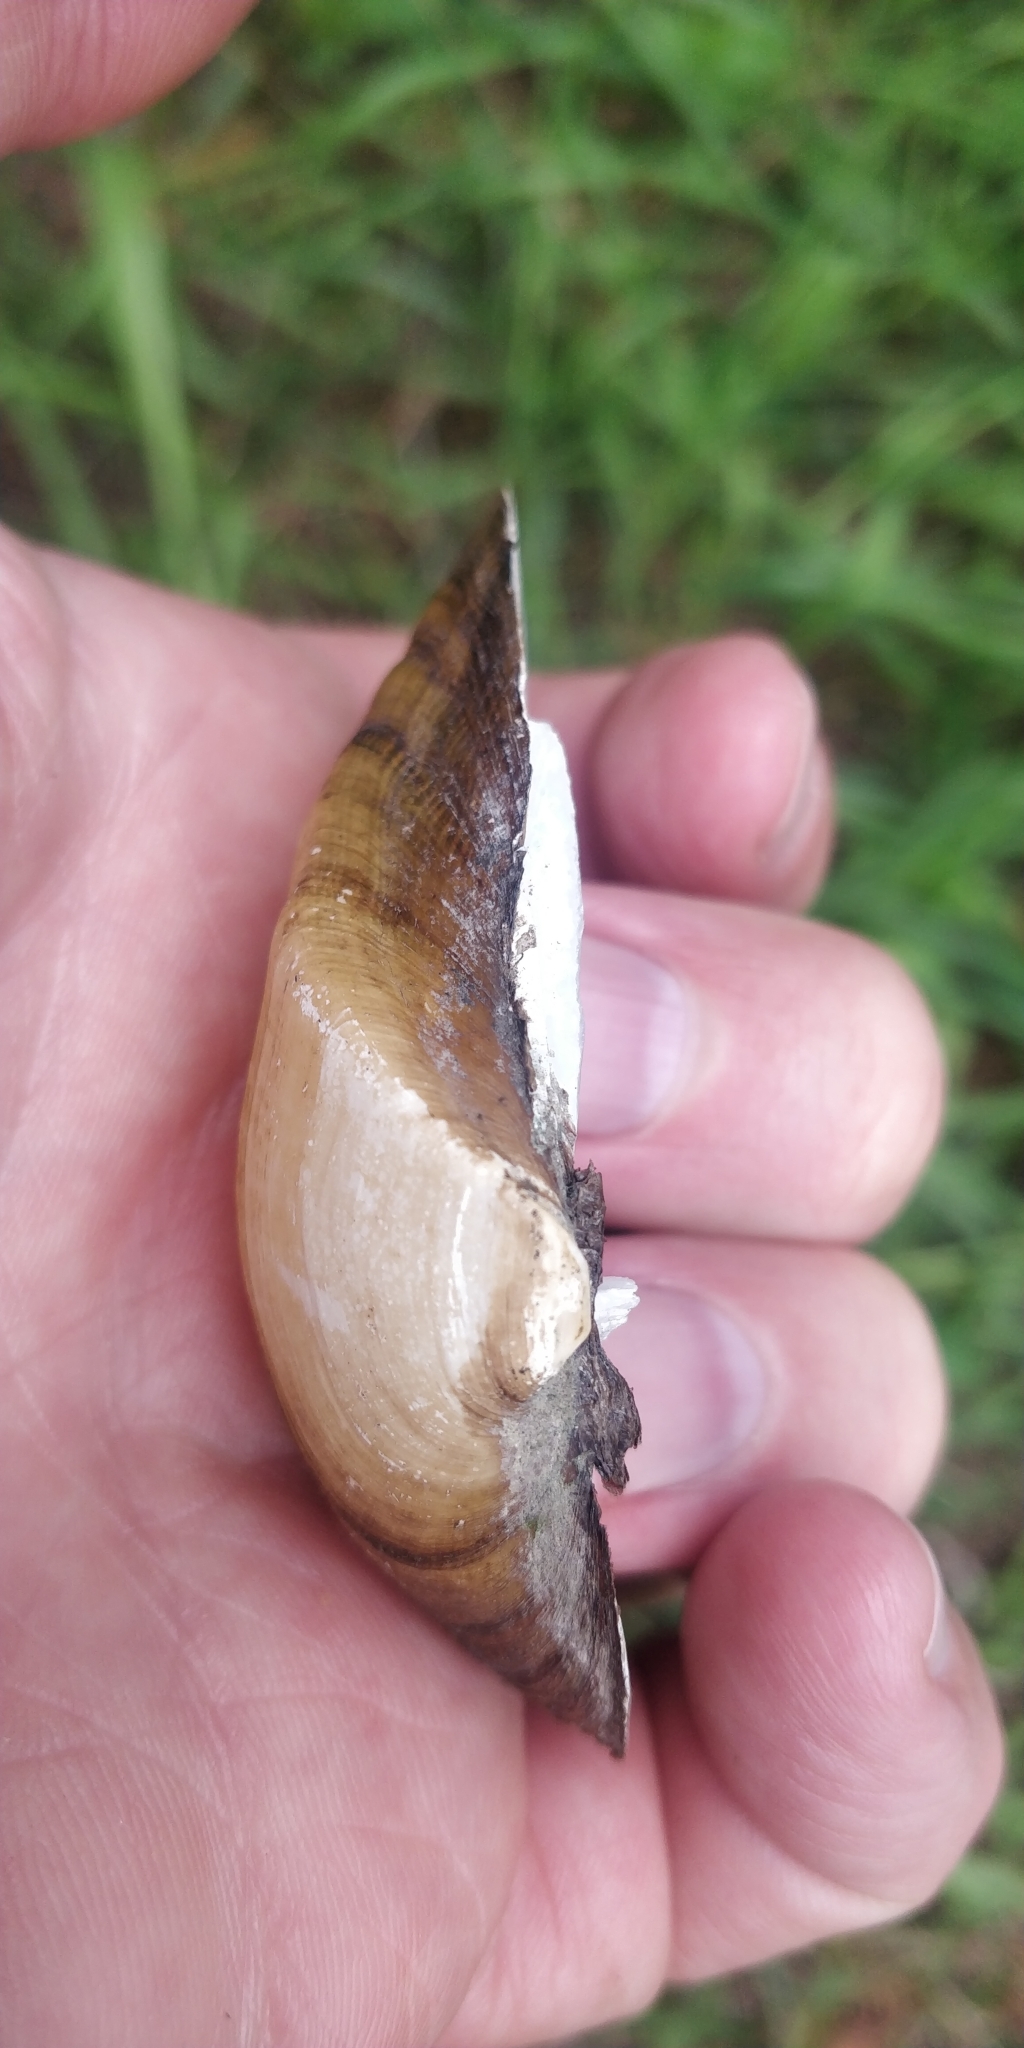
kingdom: Animalia
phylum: Mollusca
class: Bivalvia
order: Unionida
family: Unionidae
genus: Truncilla
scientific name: Truncilla truncata
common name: Deertoe
